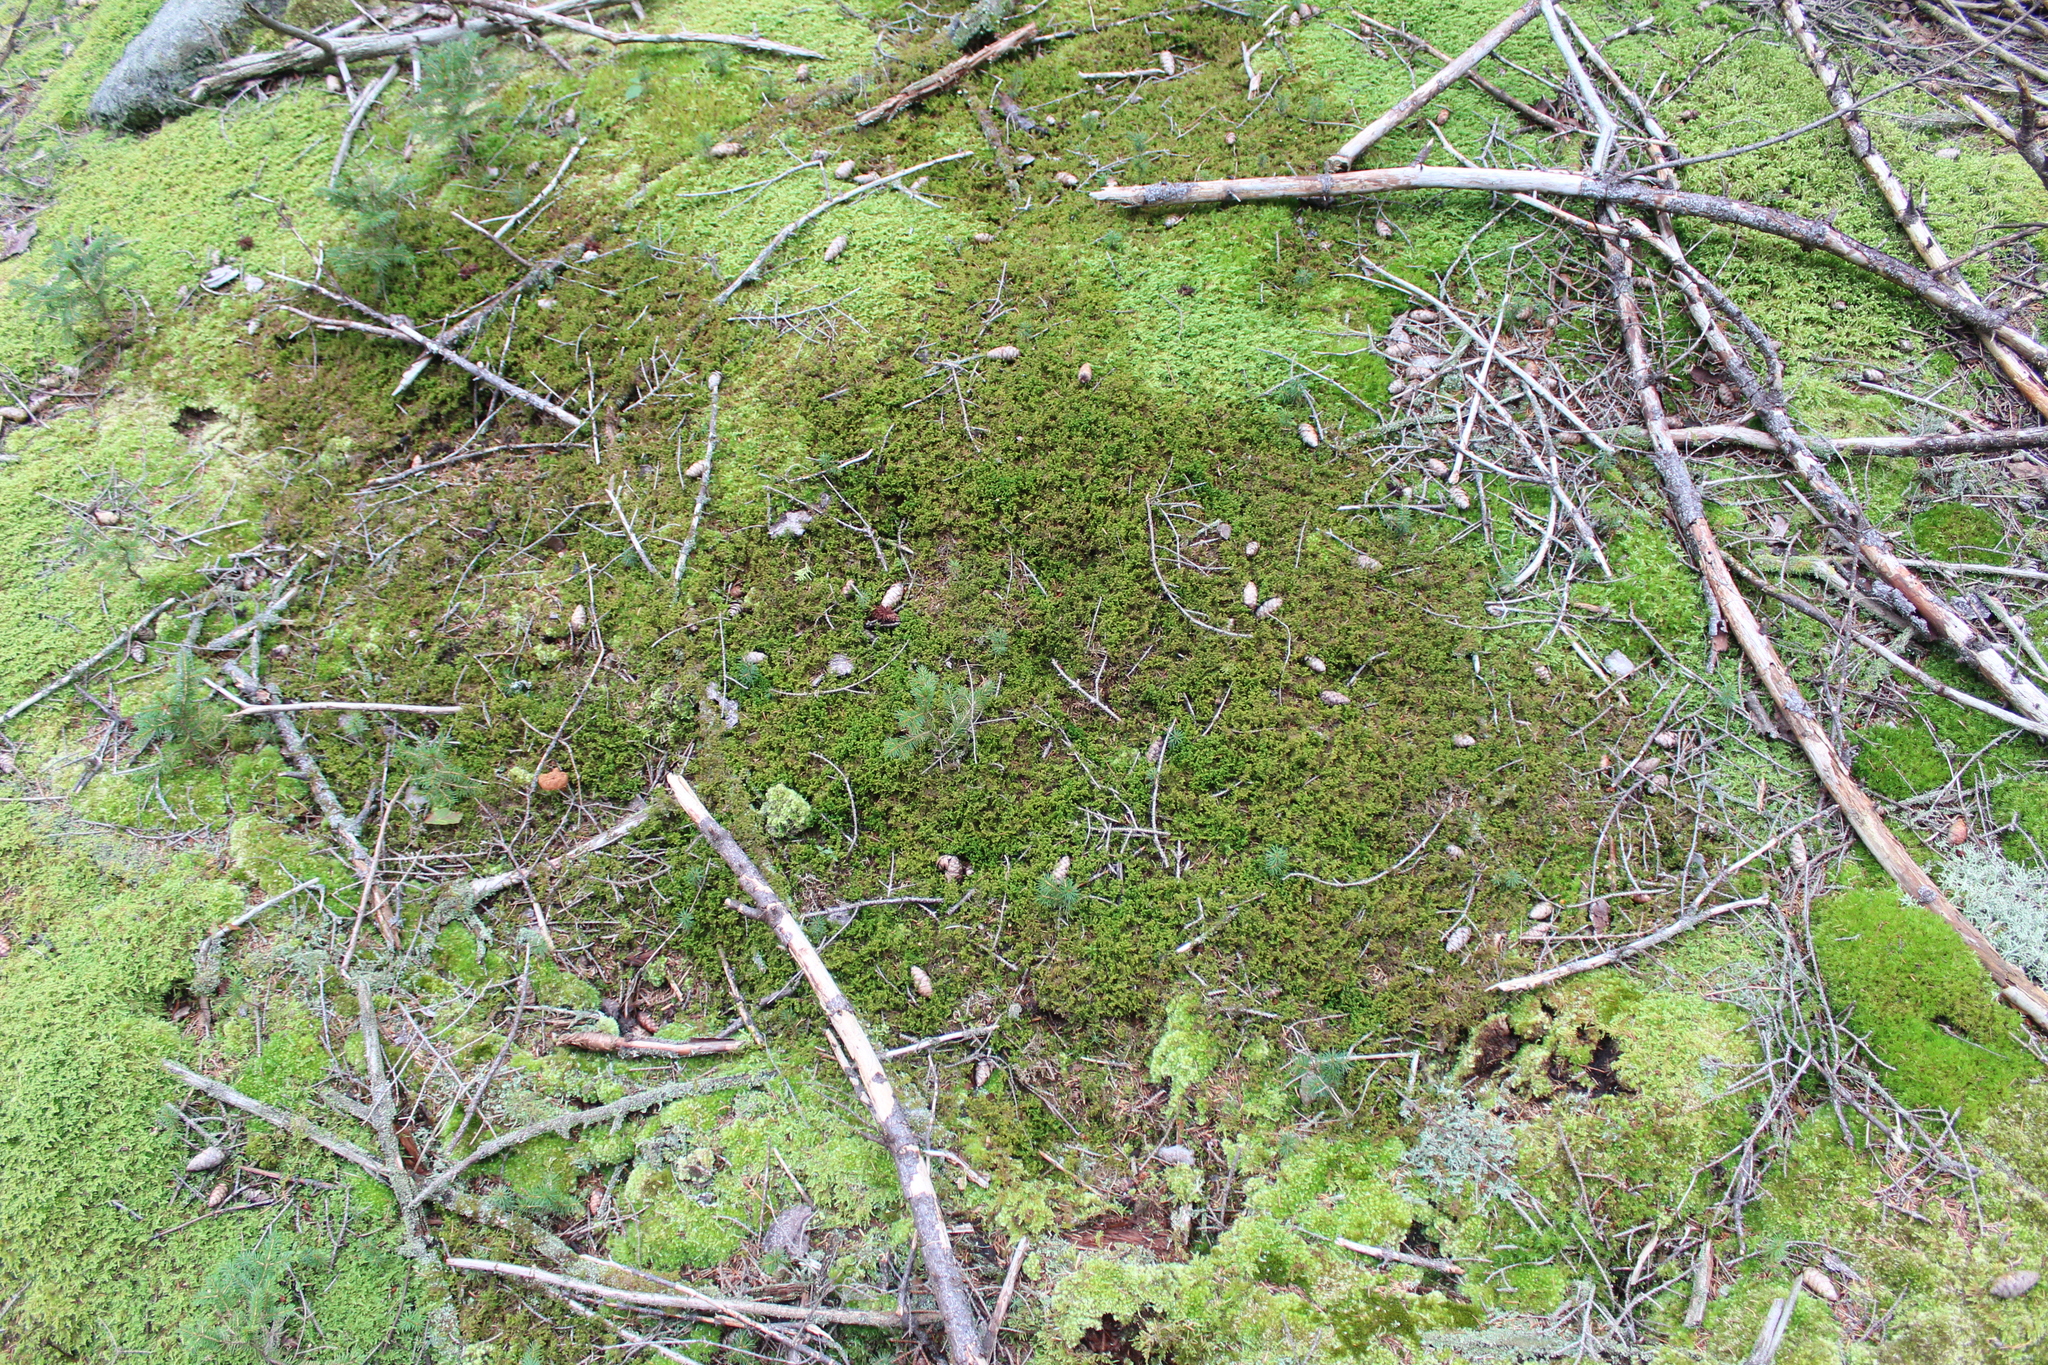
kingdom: Plantae
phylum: Marchantiophyta
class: Jungermanniopsida
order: Ptilidiales
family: Ptilidiaceae
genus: Ptilidium
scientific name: Ptilidium ciliare
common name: Ciliate fringewort
